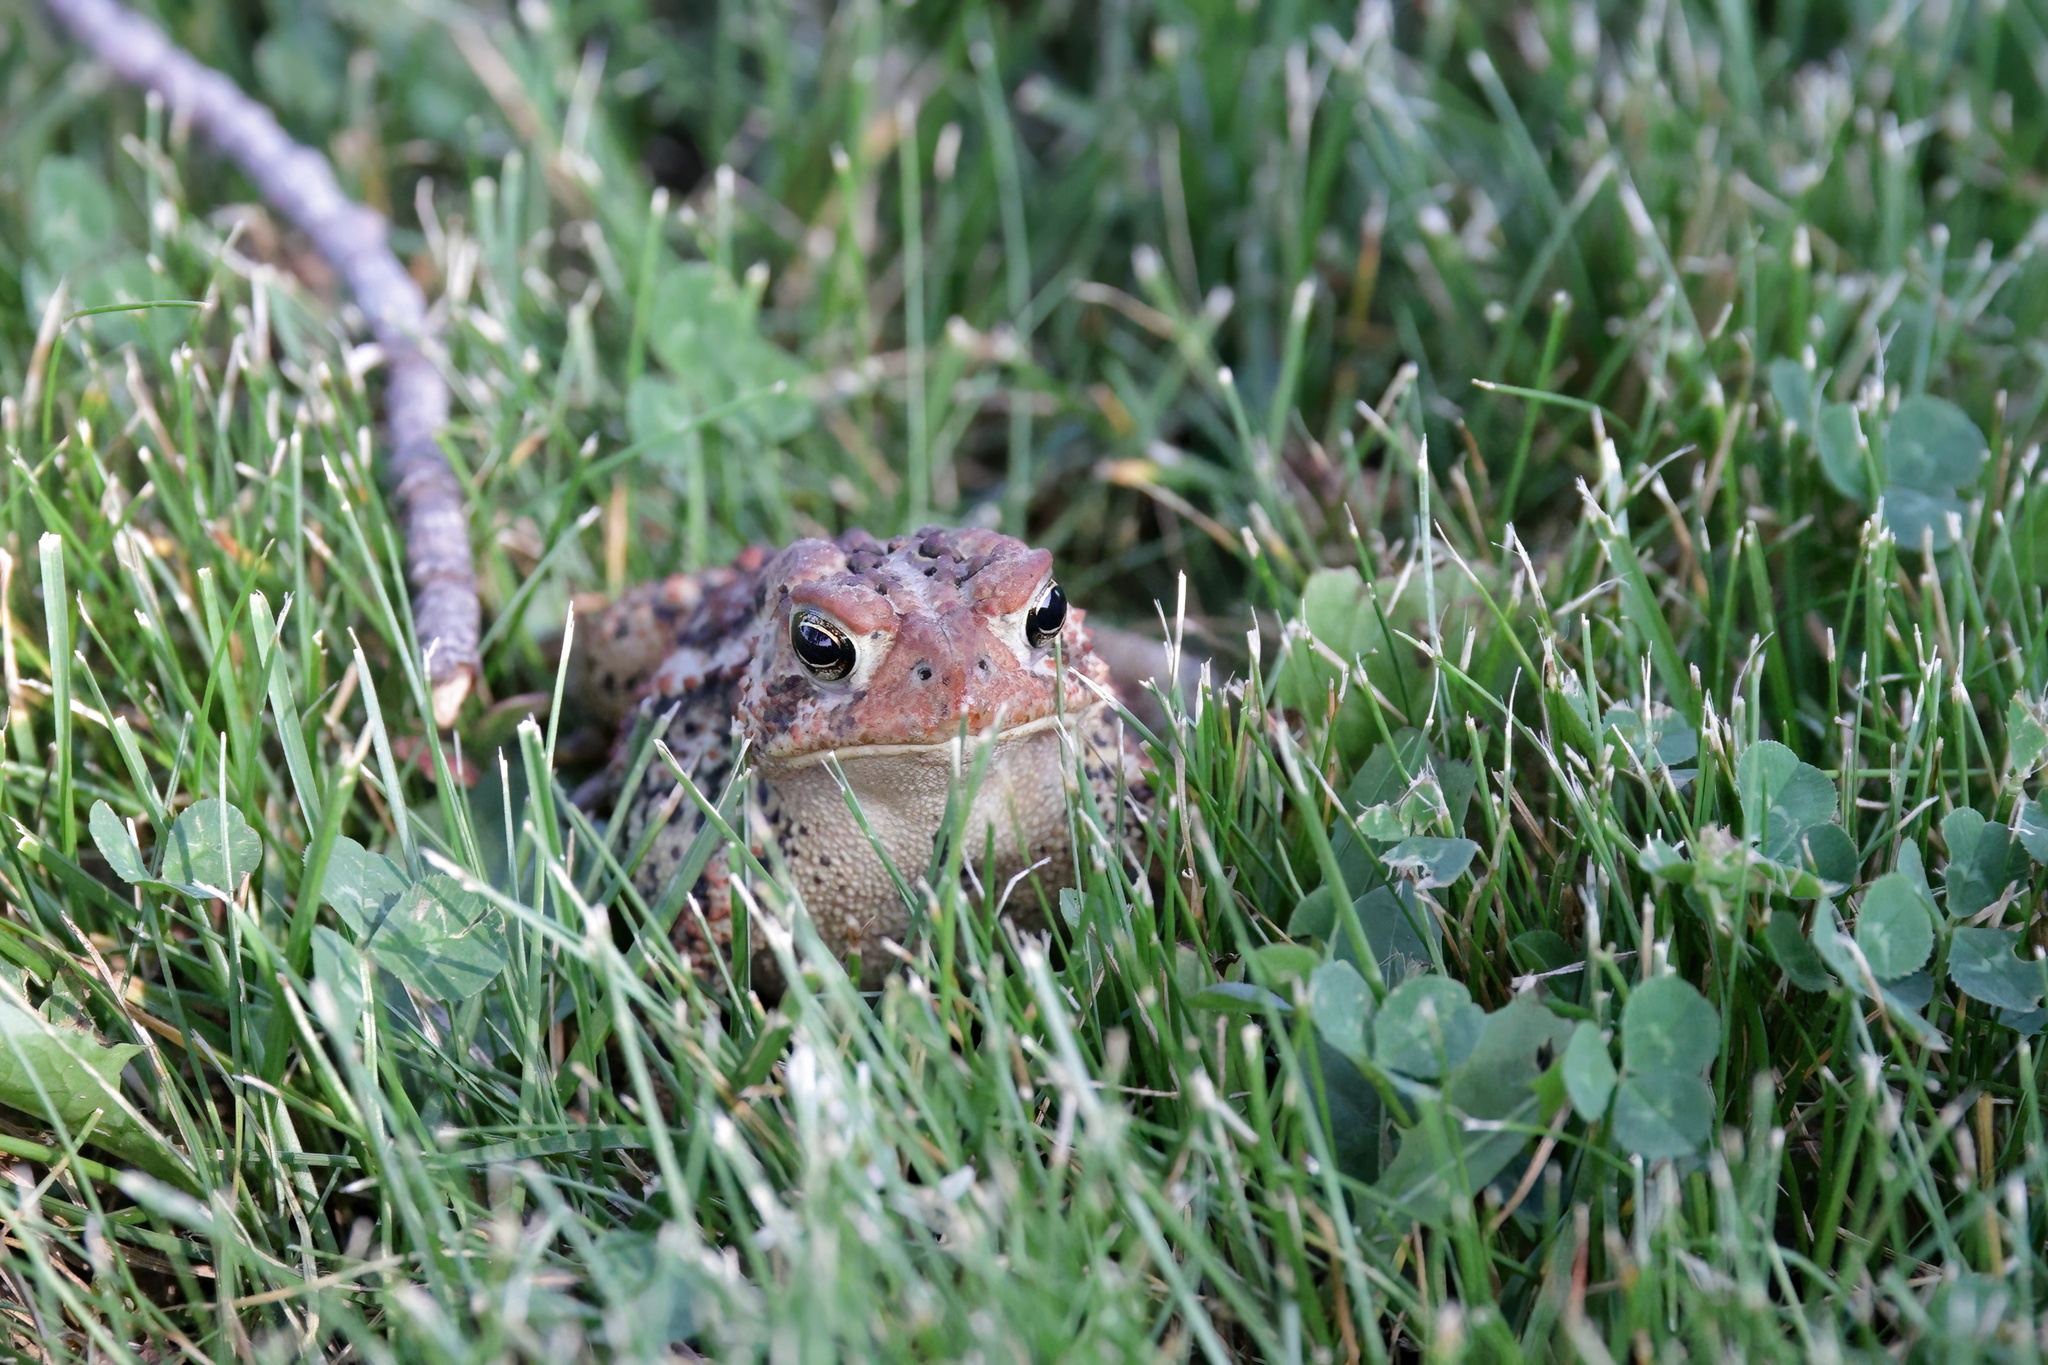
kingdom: Animalia
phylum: Chordata
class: Amphibia
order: Anura
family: Bufonidae
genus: Anaxyrus
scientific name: Anaxyrus americanus
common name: American toad
